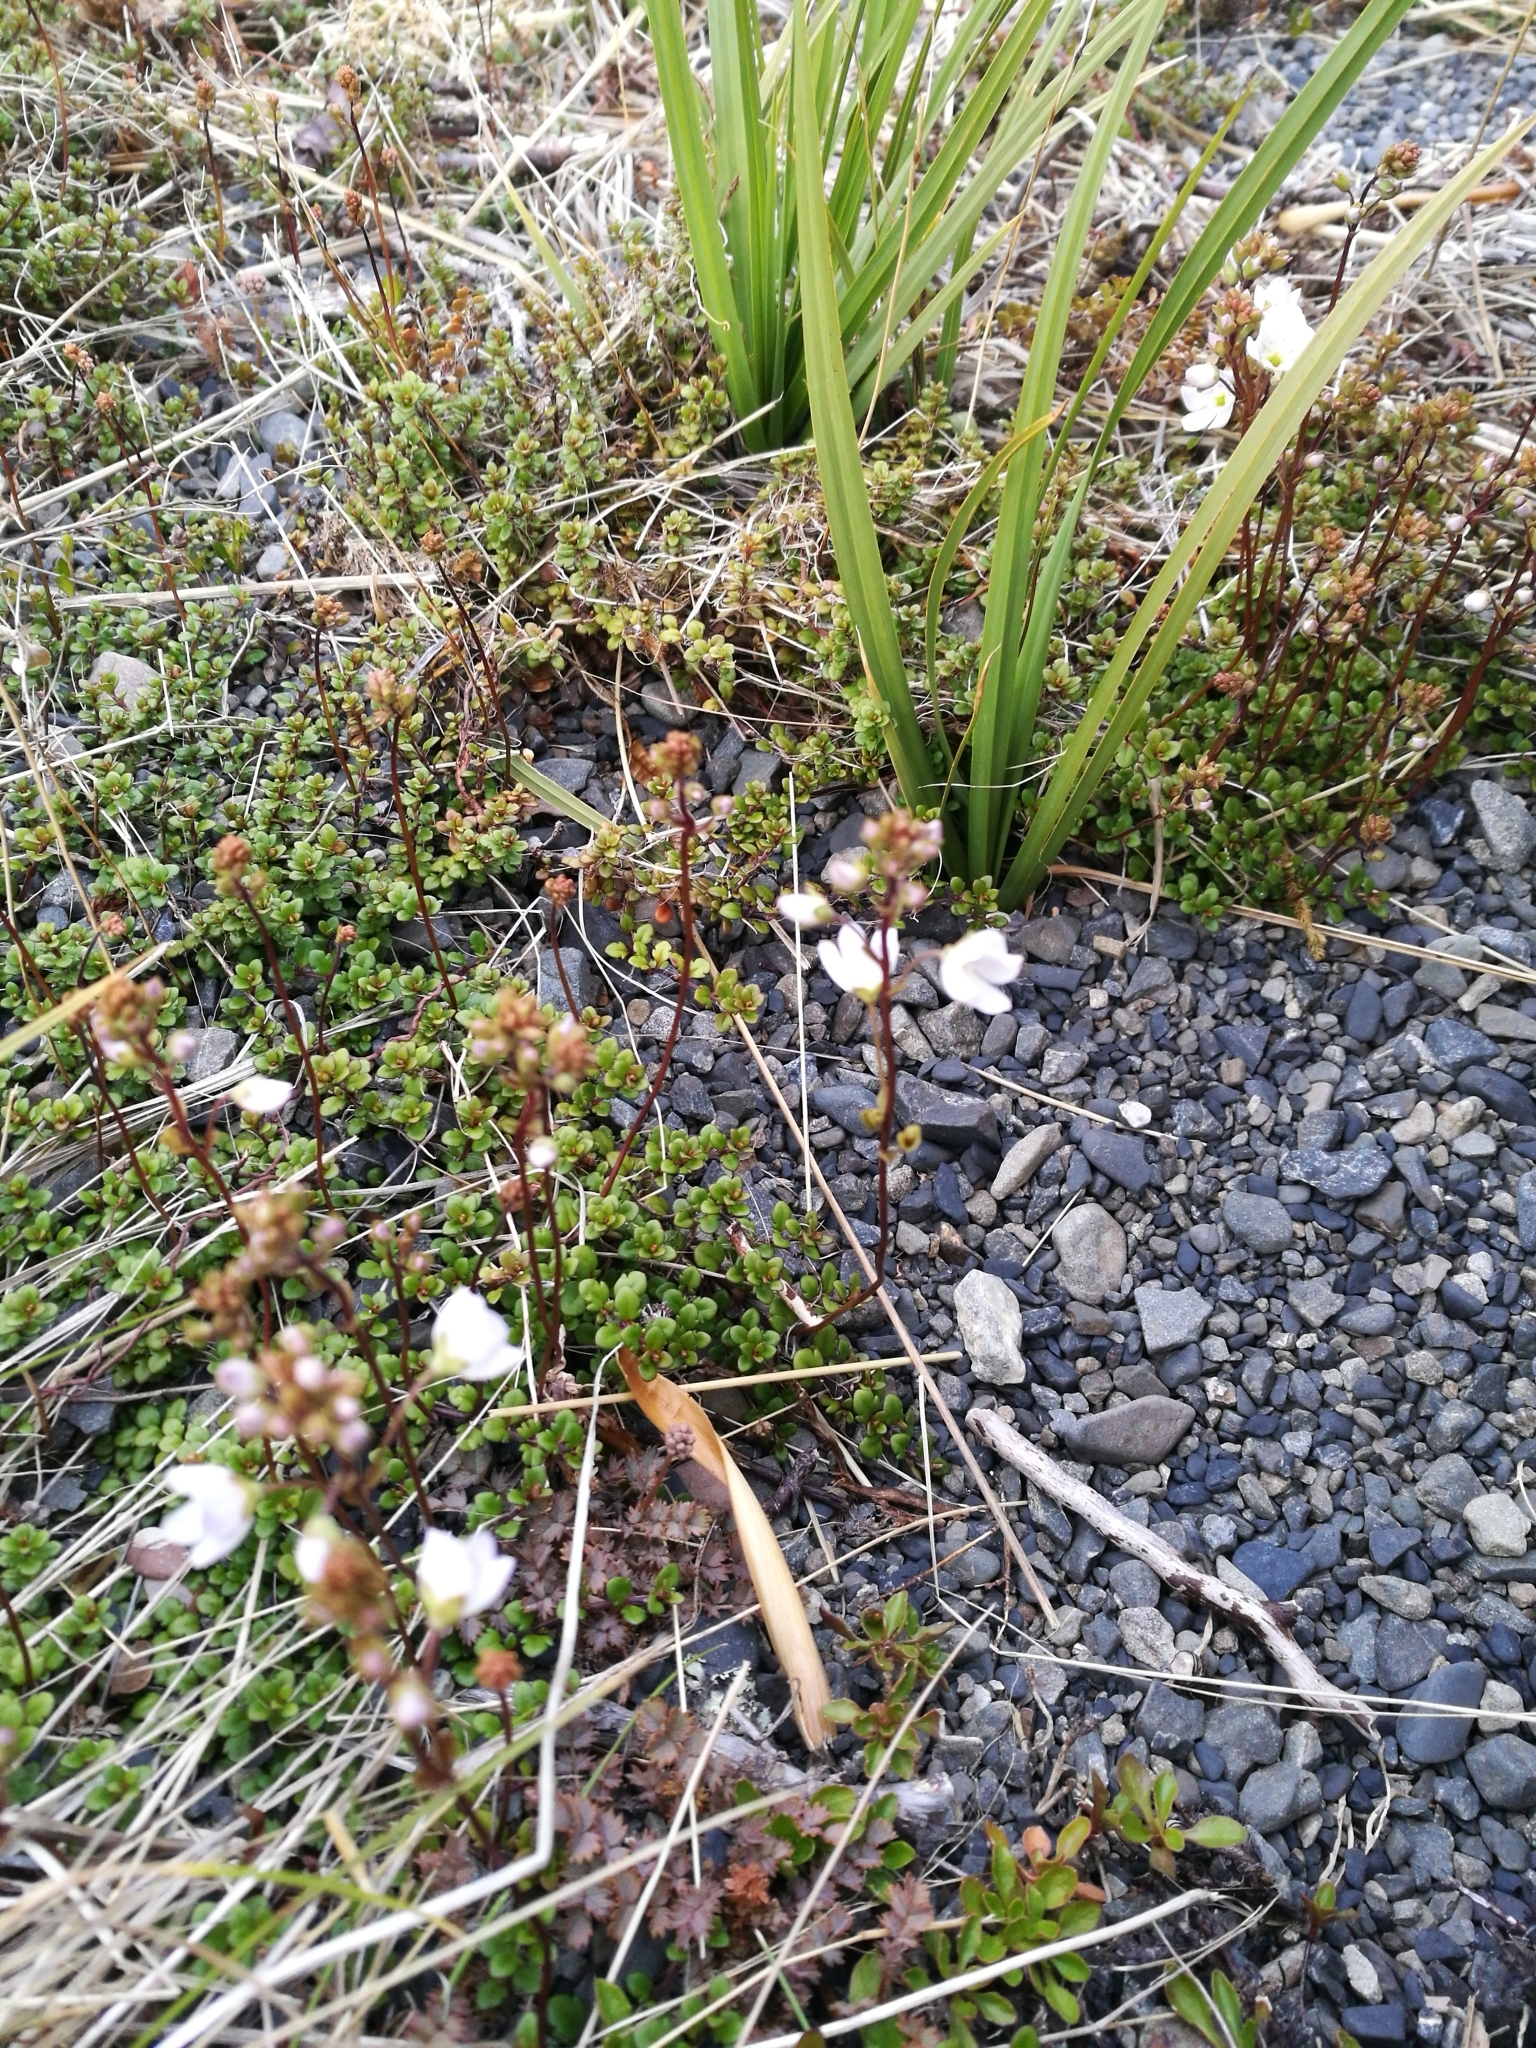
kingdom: Plantae
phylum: Tracheophyta
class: Magnoliopsida
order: Lamiales
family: Plantaginaceae
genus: Veronica
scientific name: Veronica decora
